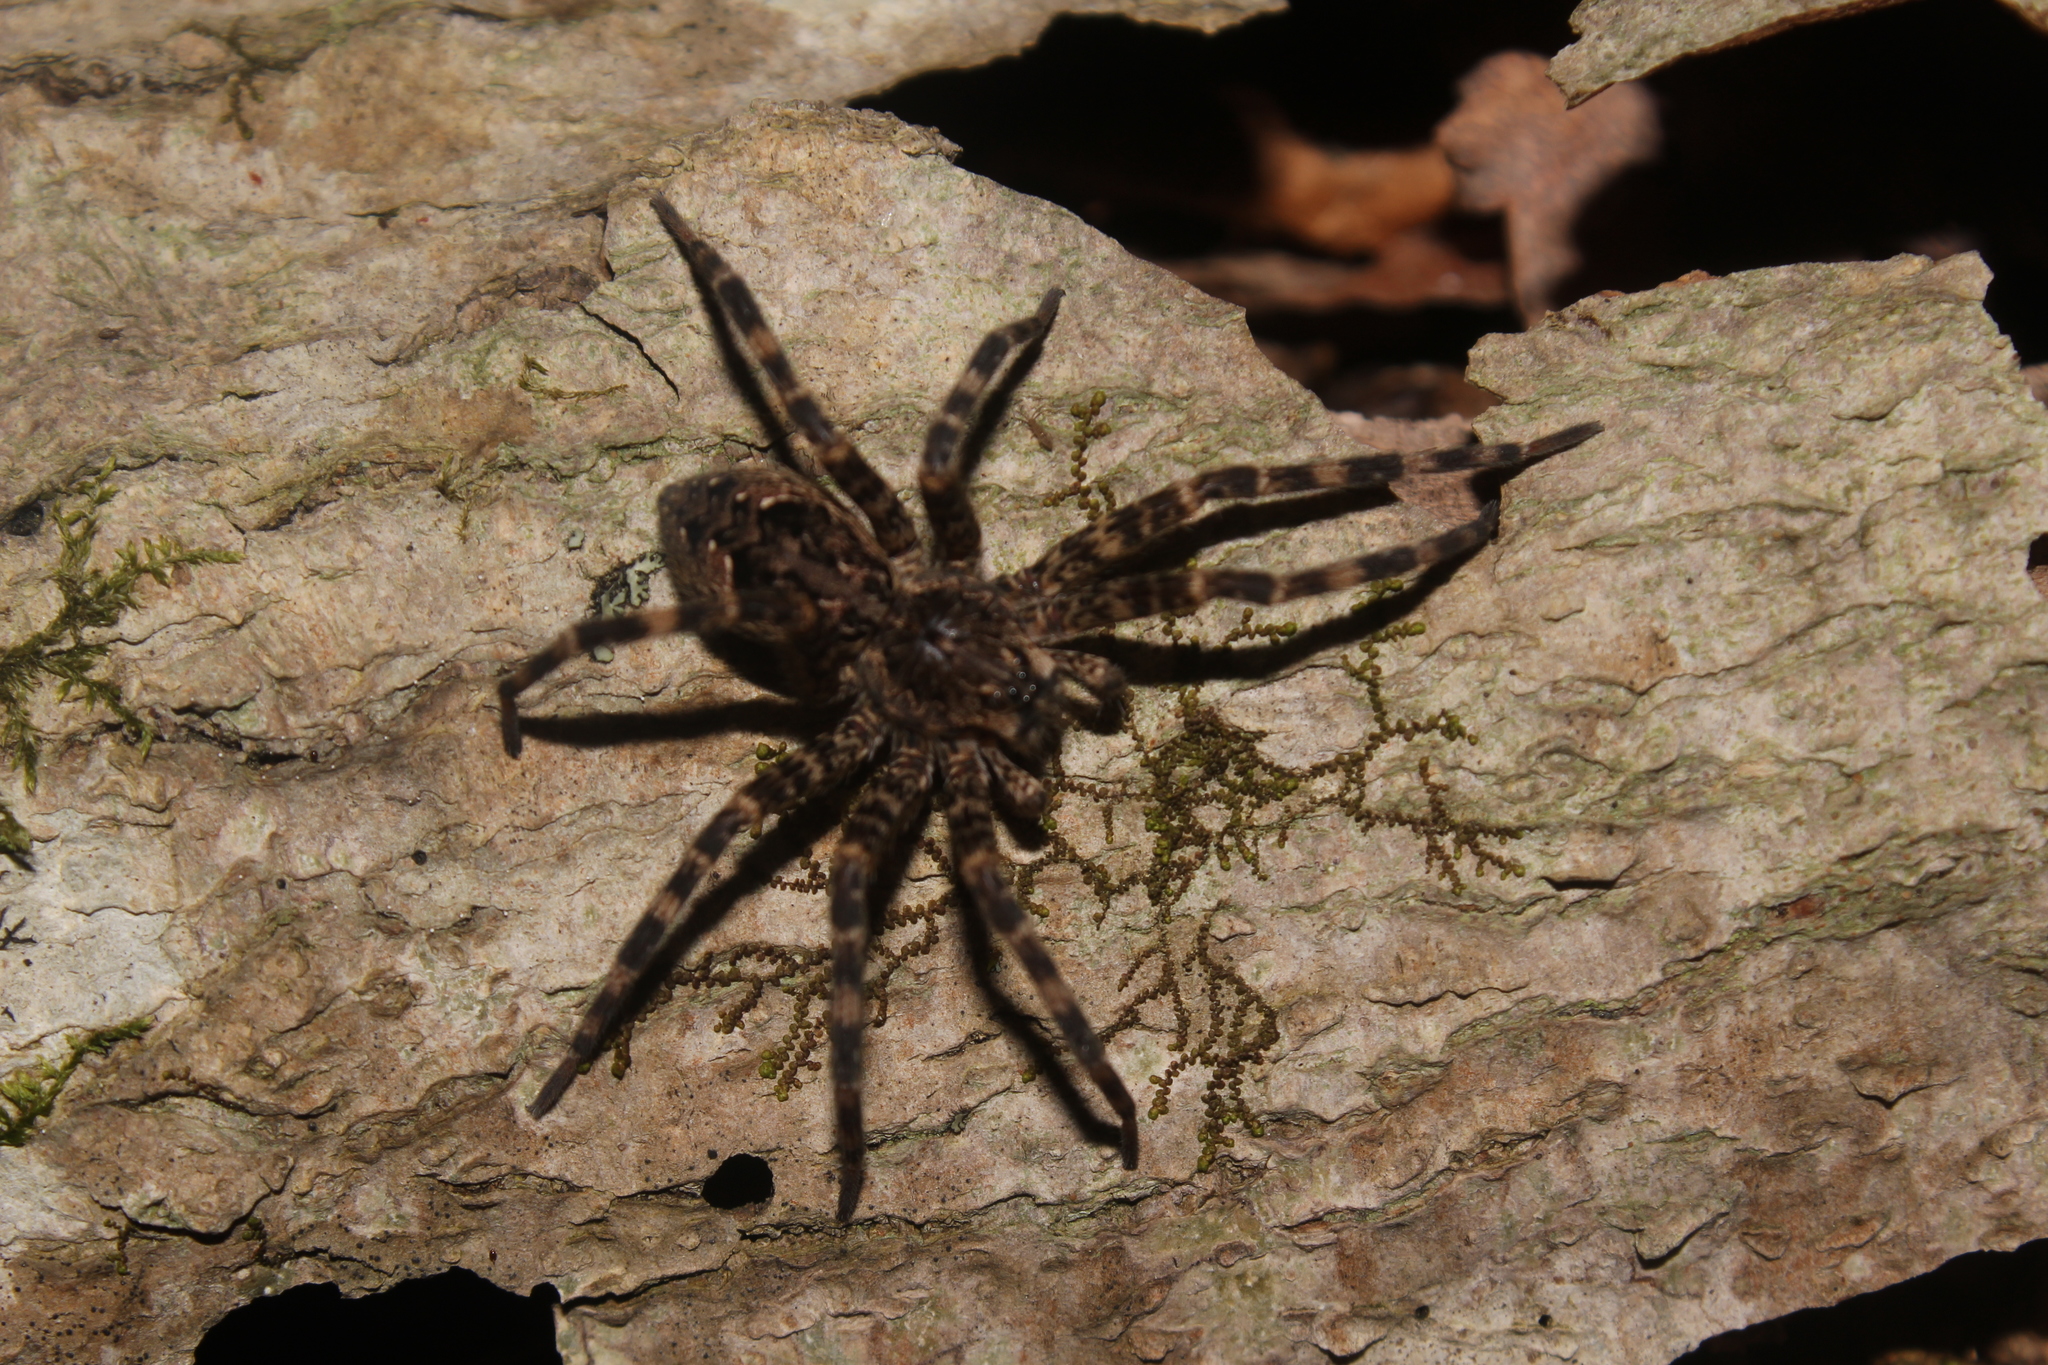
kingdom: Animalia
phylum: Arthropoda
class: Arachnida
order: Araneae
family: Pisauridae
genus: Dolomedes
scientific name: Dolomedes tenebrosus
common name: Dark fishing spider
